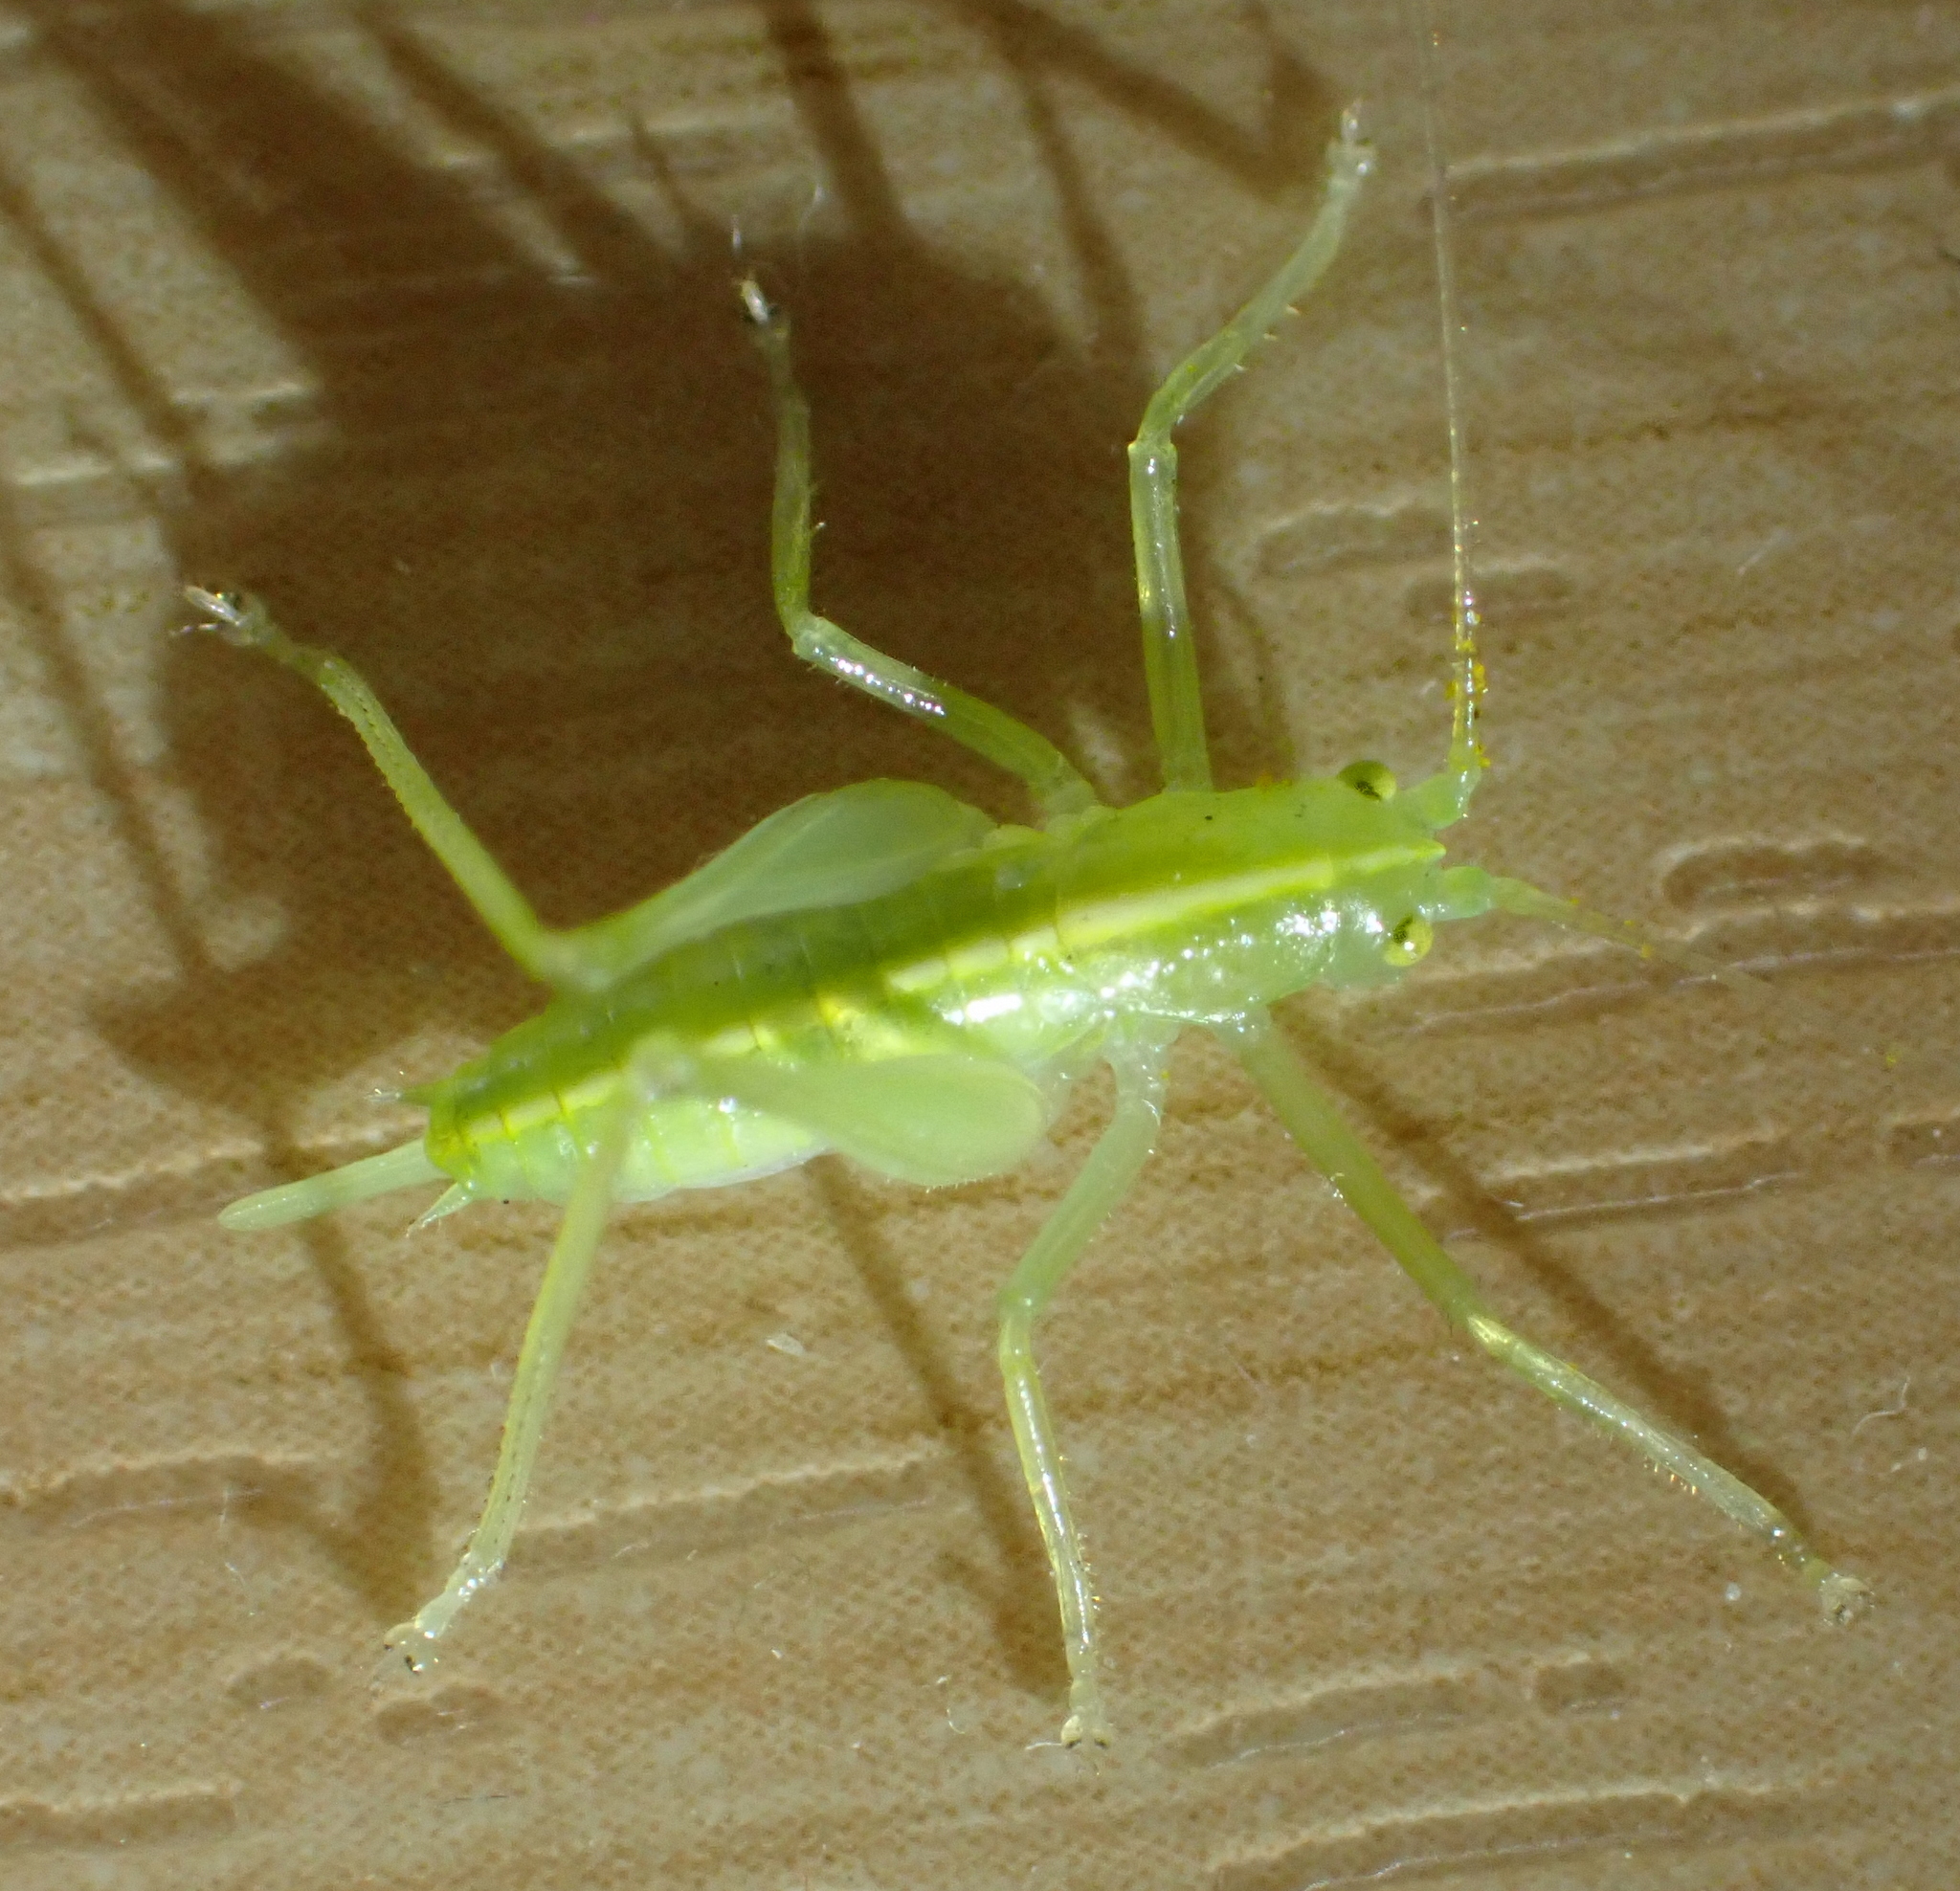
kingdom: Animalia
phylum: Arthropoda
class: Insecta
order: Orthoptera
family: Tettigoniidae
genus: Meconema
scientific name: Meconema meridionale
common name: Southern oak bush-cricket
